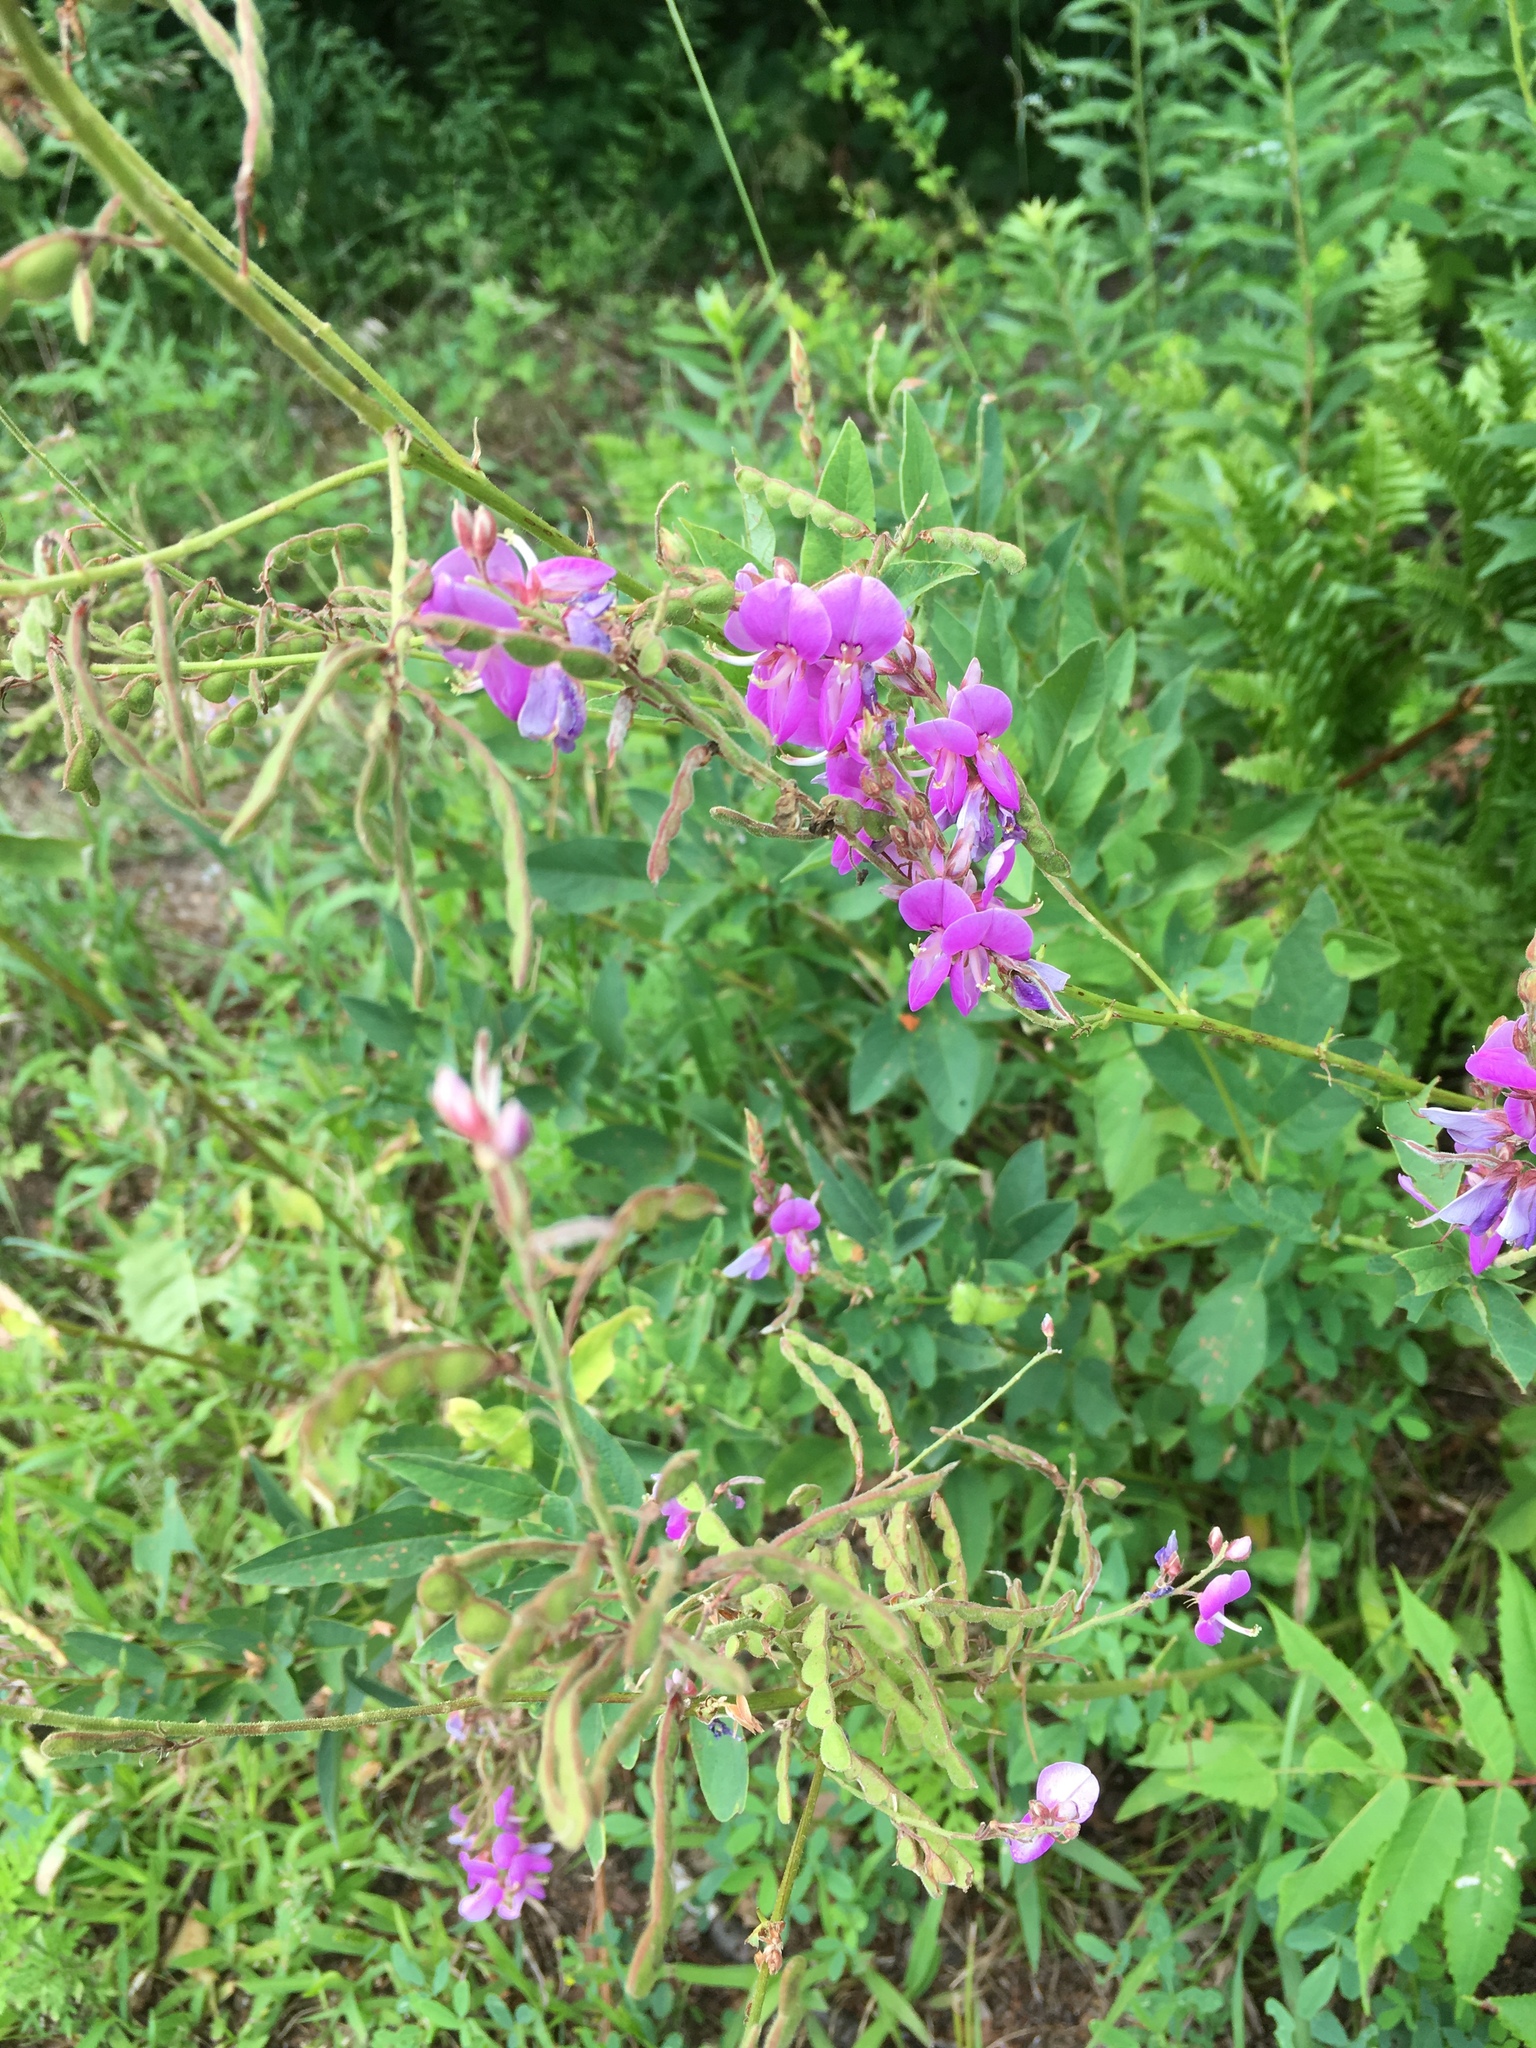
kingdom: Plantae
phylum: Tracheophyta
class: Magnoliopsida
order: Fabales
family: Fabaceae
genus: Desmodium
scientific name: Desmodium canadense
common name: Canada tick-trefoil
